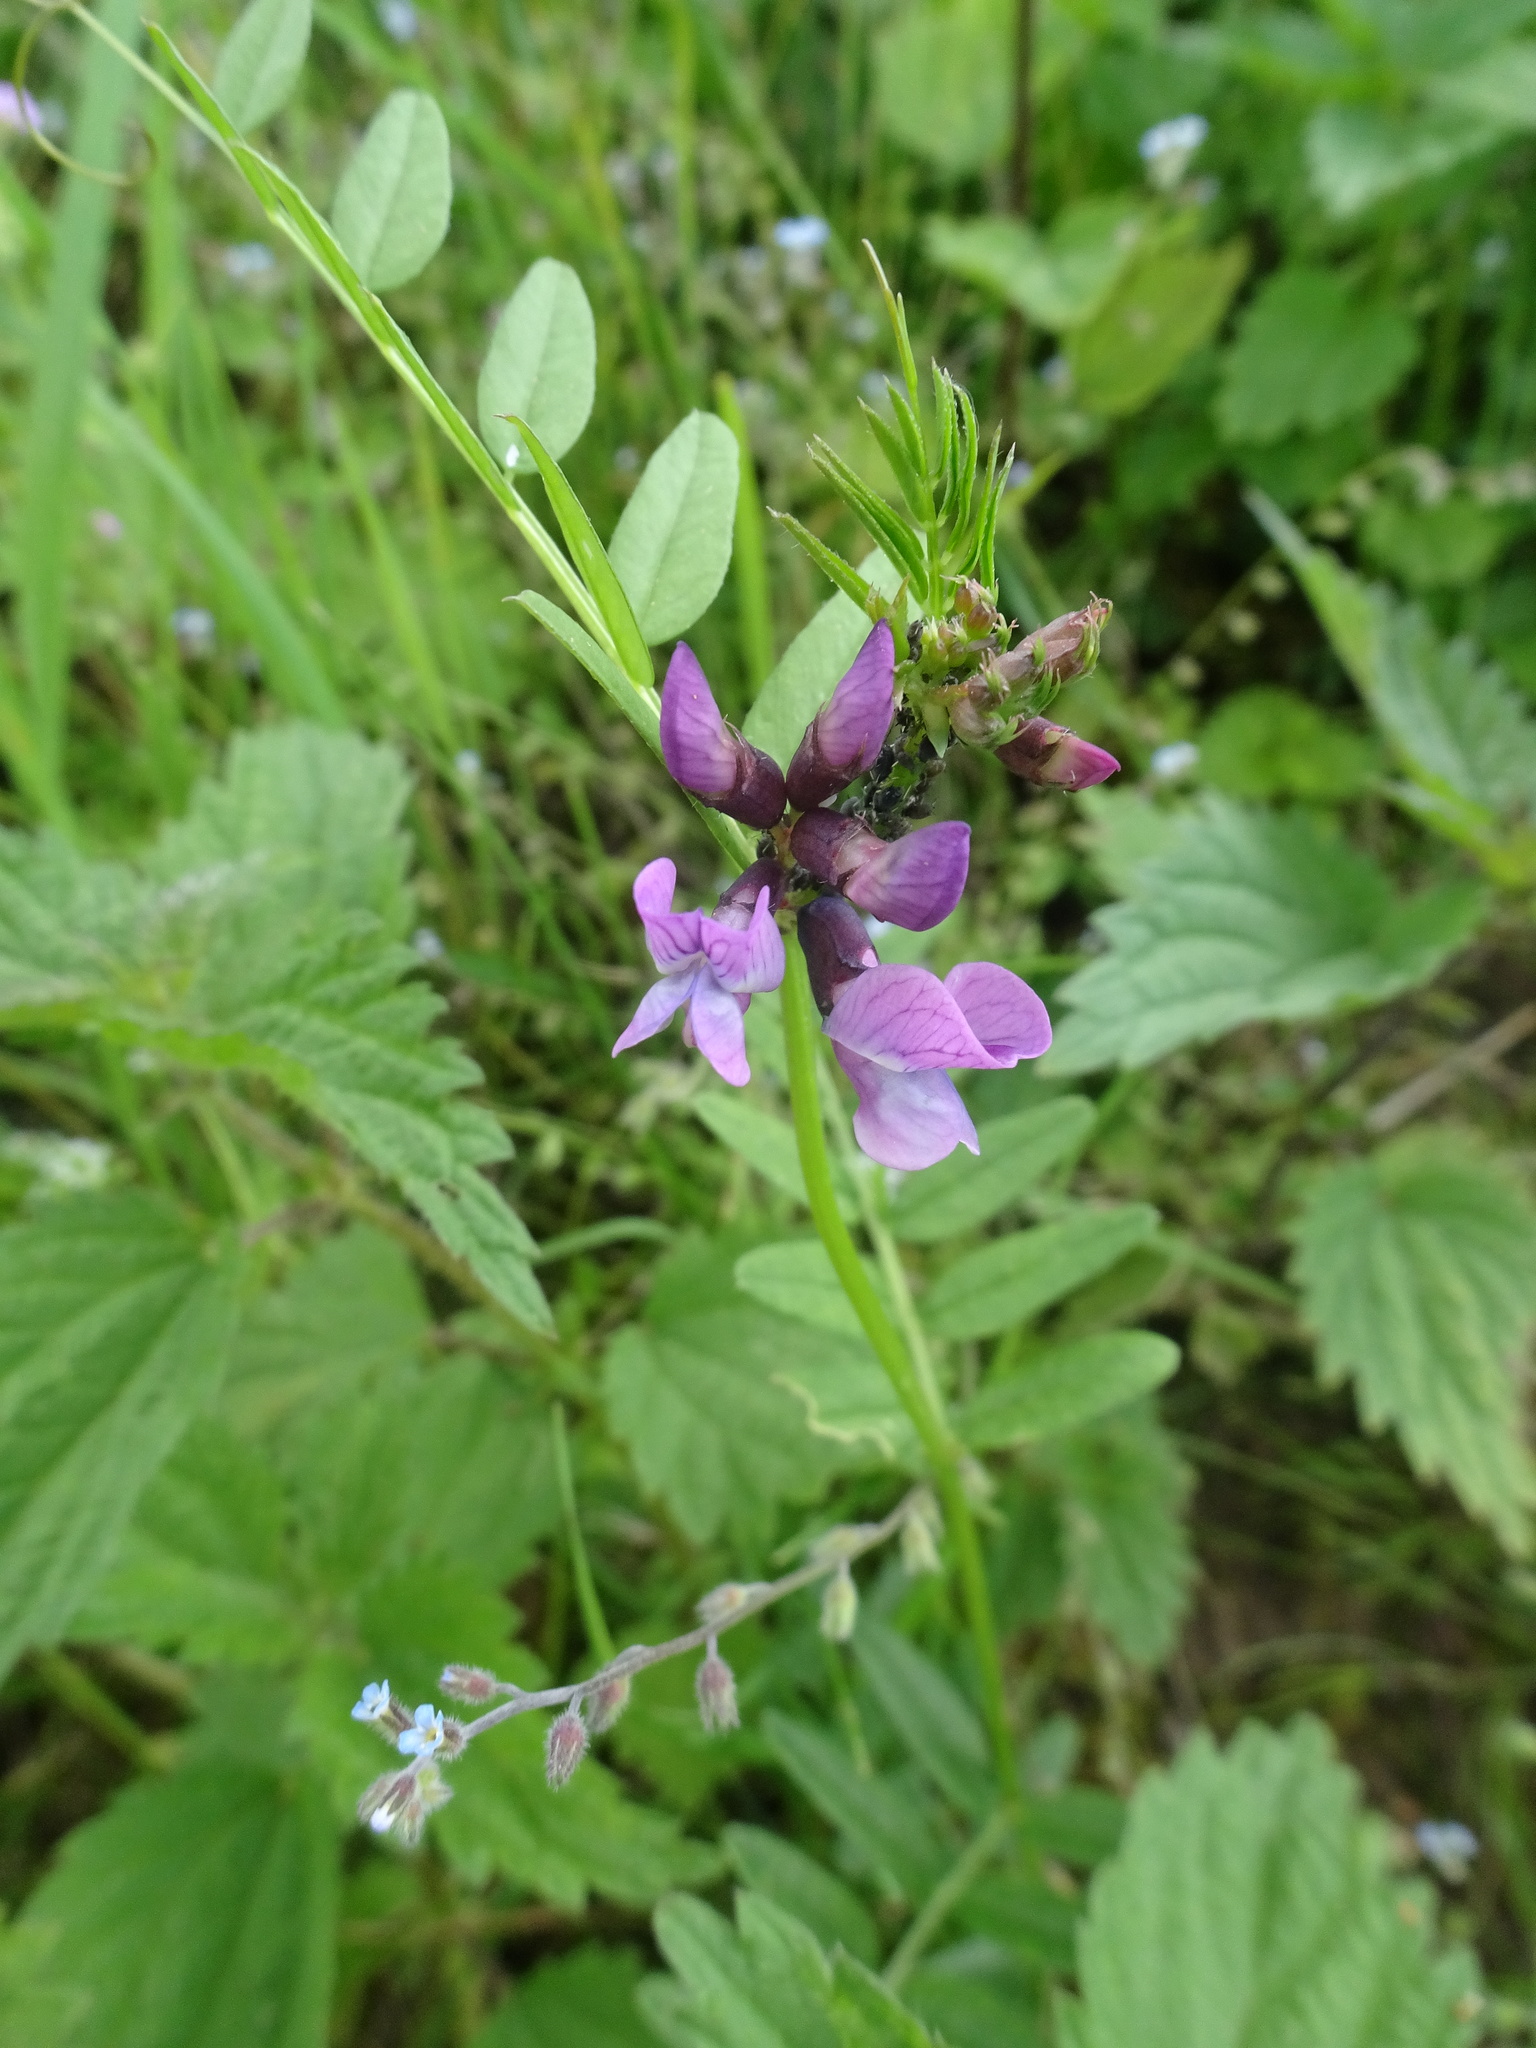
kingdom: Plantae
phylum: Tracheophyta
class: Magnoliopsida
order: Fabales
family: Fabaceae
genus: Vicia
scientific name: Vicia sepium
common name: Bush vetch
